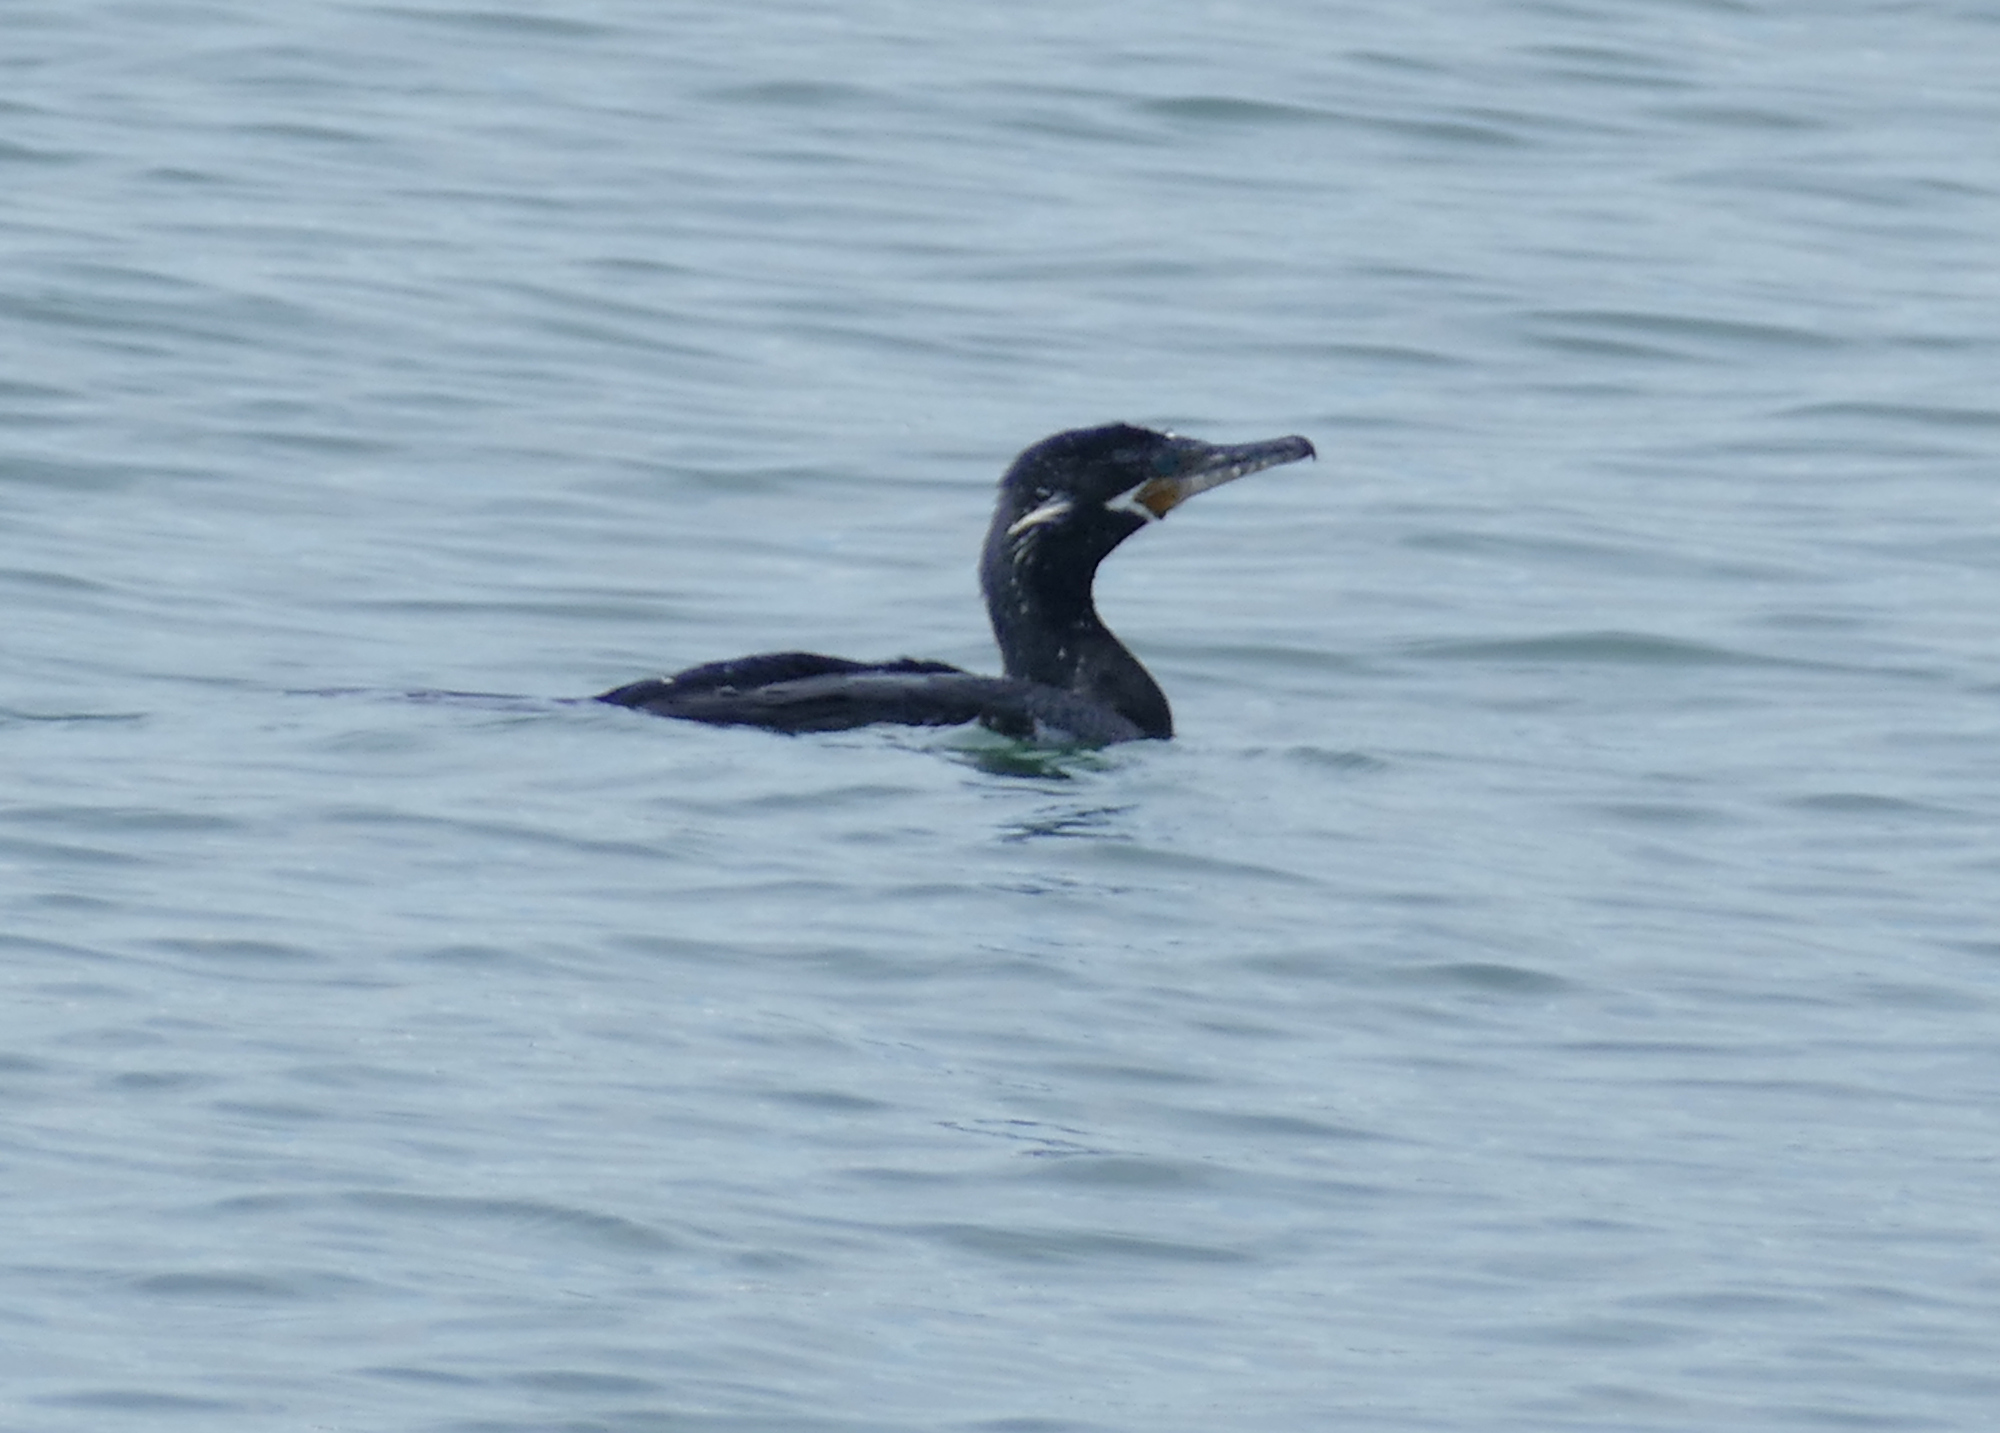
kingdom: Animalia
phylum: Chordata
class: Aves
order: Suliformes
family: Phalacrocoracidae
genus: Phalacrocorax
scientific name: Phalacrocorax brasilianus
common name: Neotropic cormorant
